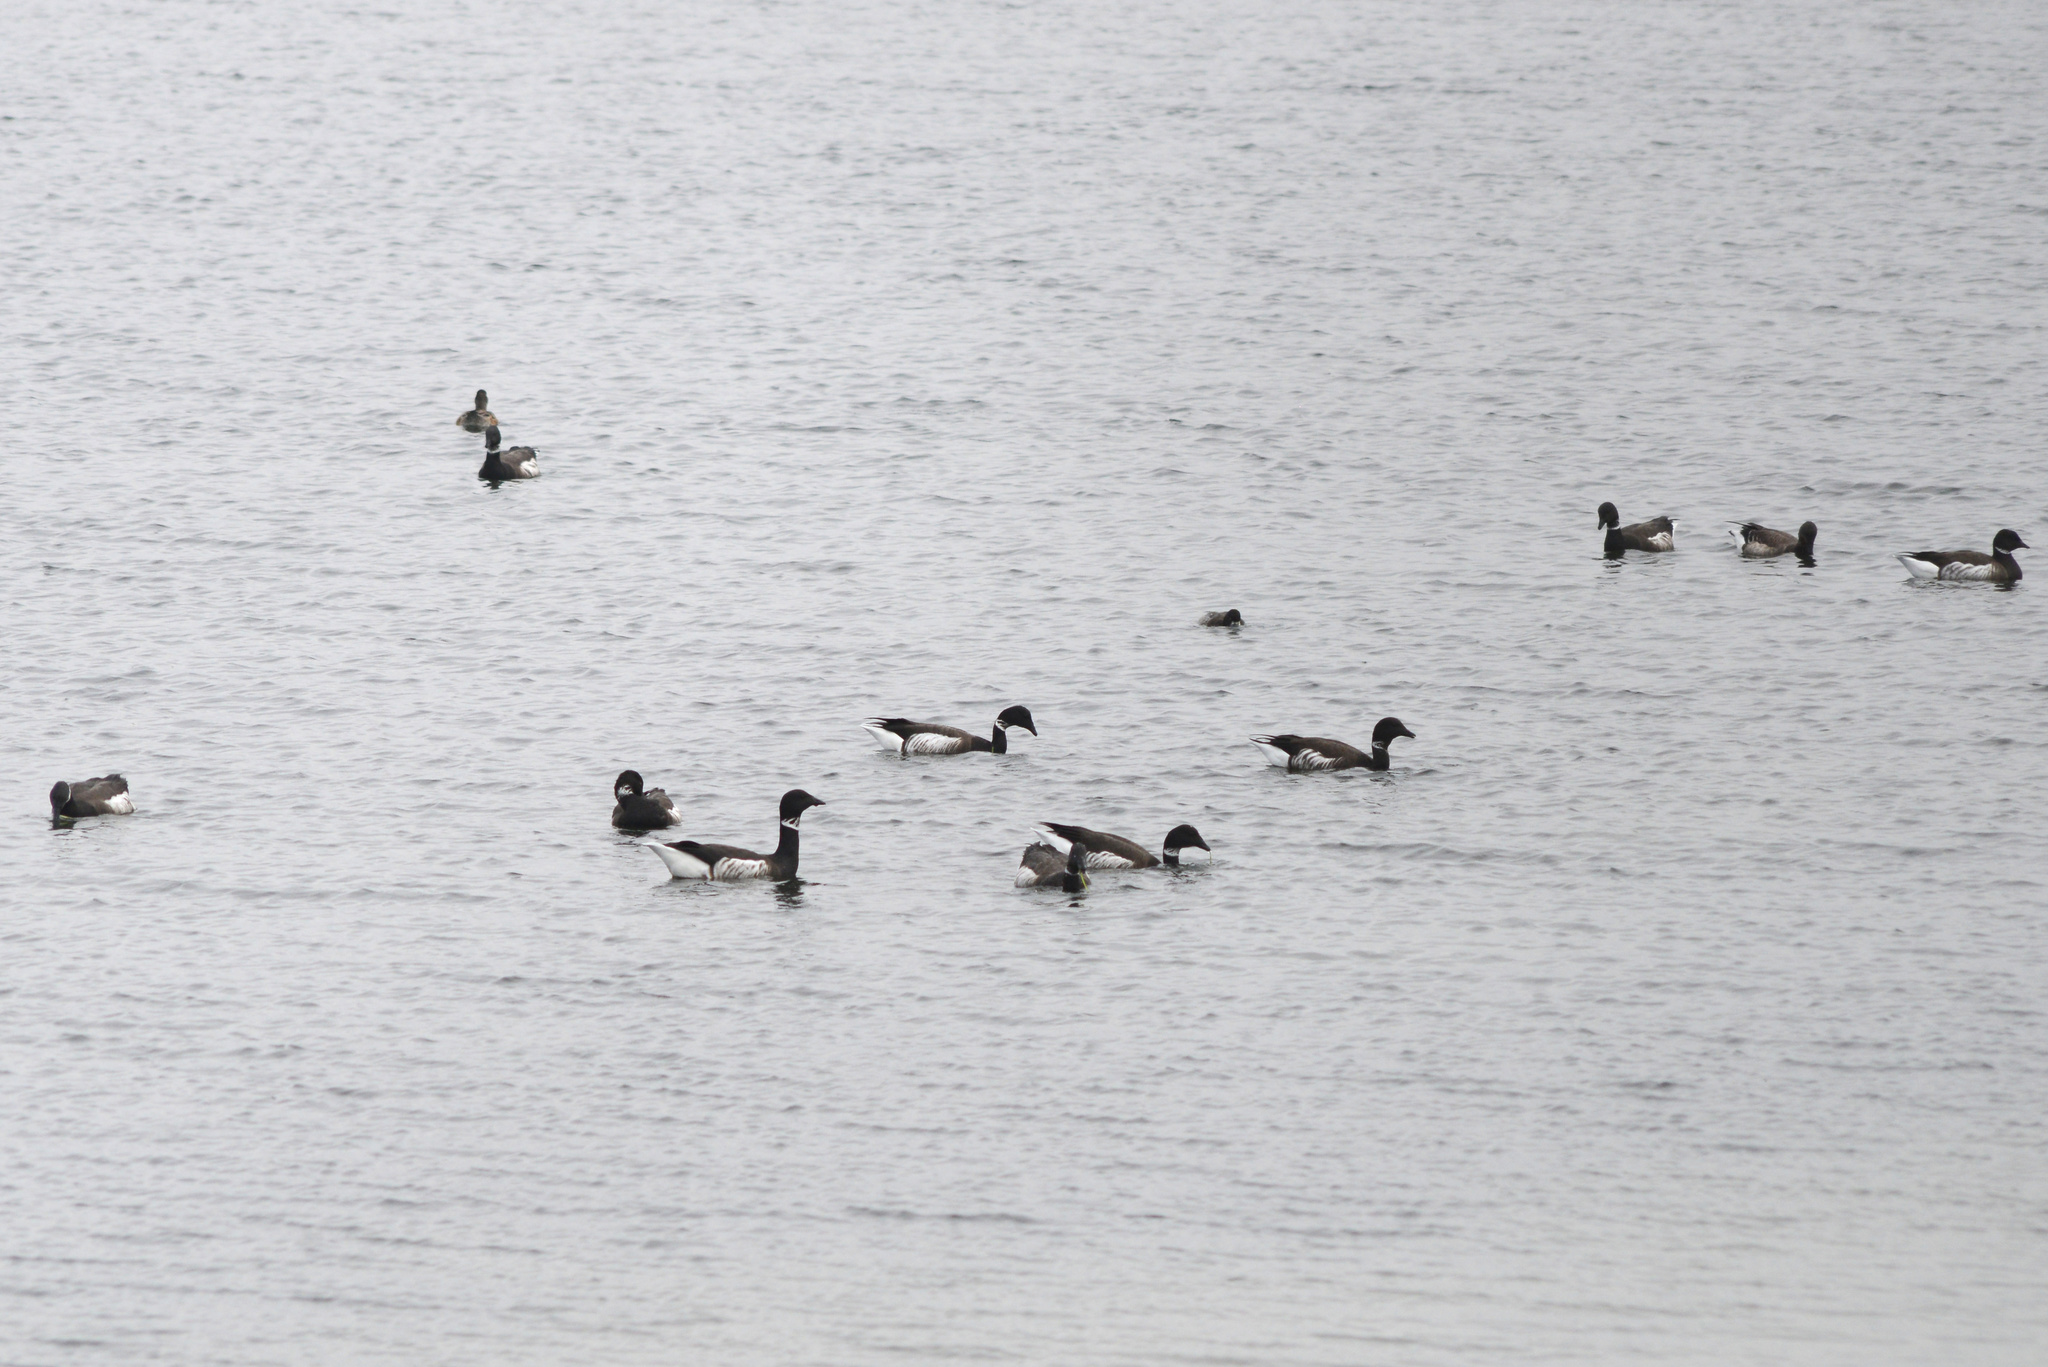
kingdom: Animalia
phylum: Chordata
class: Aves
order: Anseriformes
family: Anatidae
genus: Branta
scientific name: Branta bernicla
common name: Brant goose
